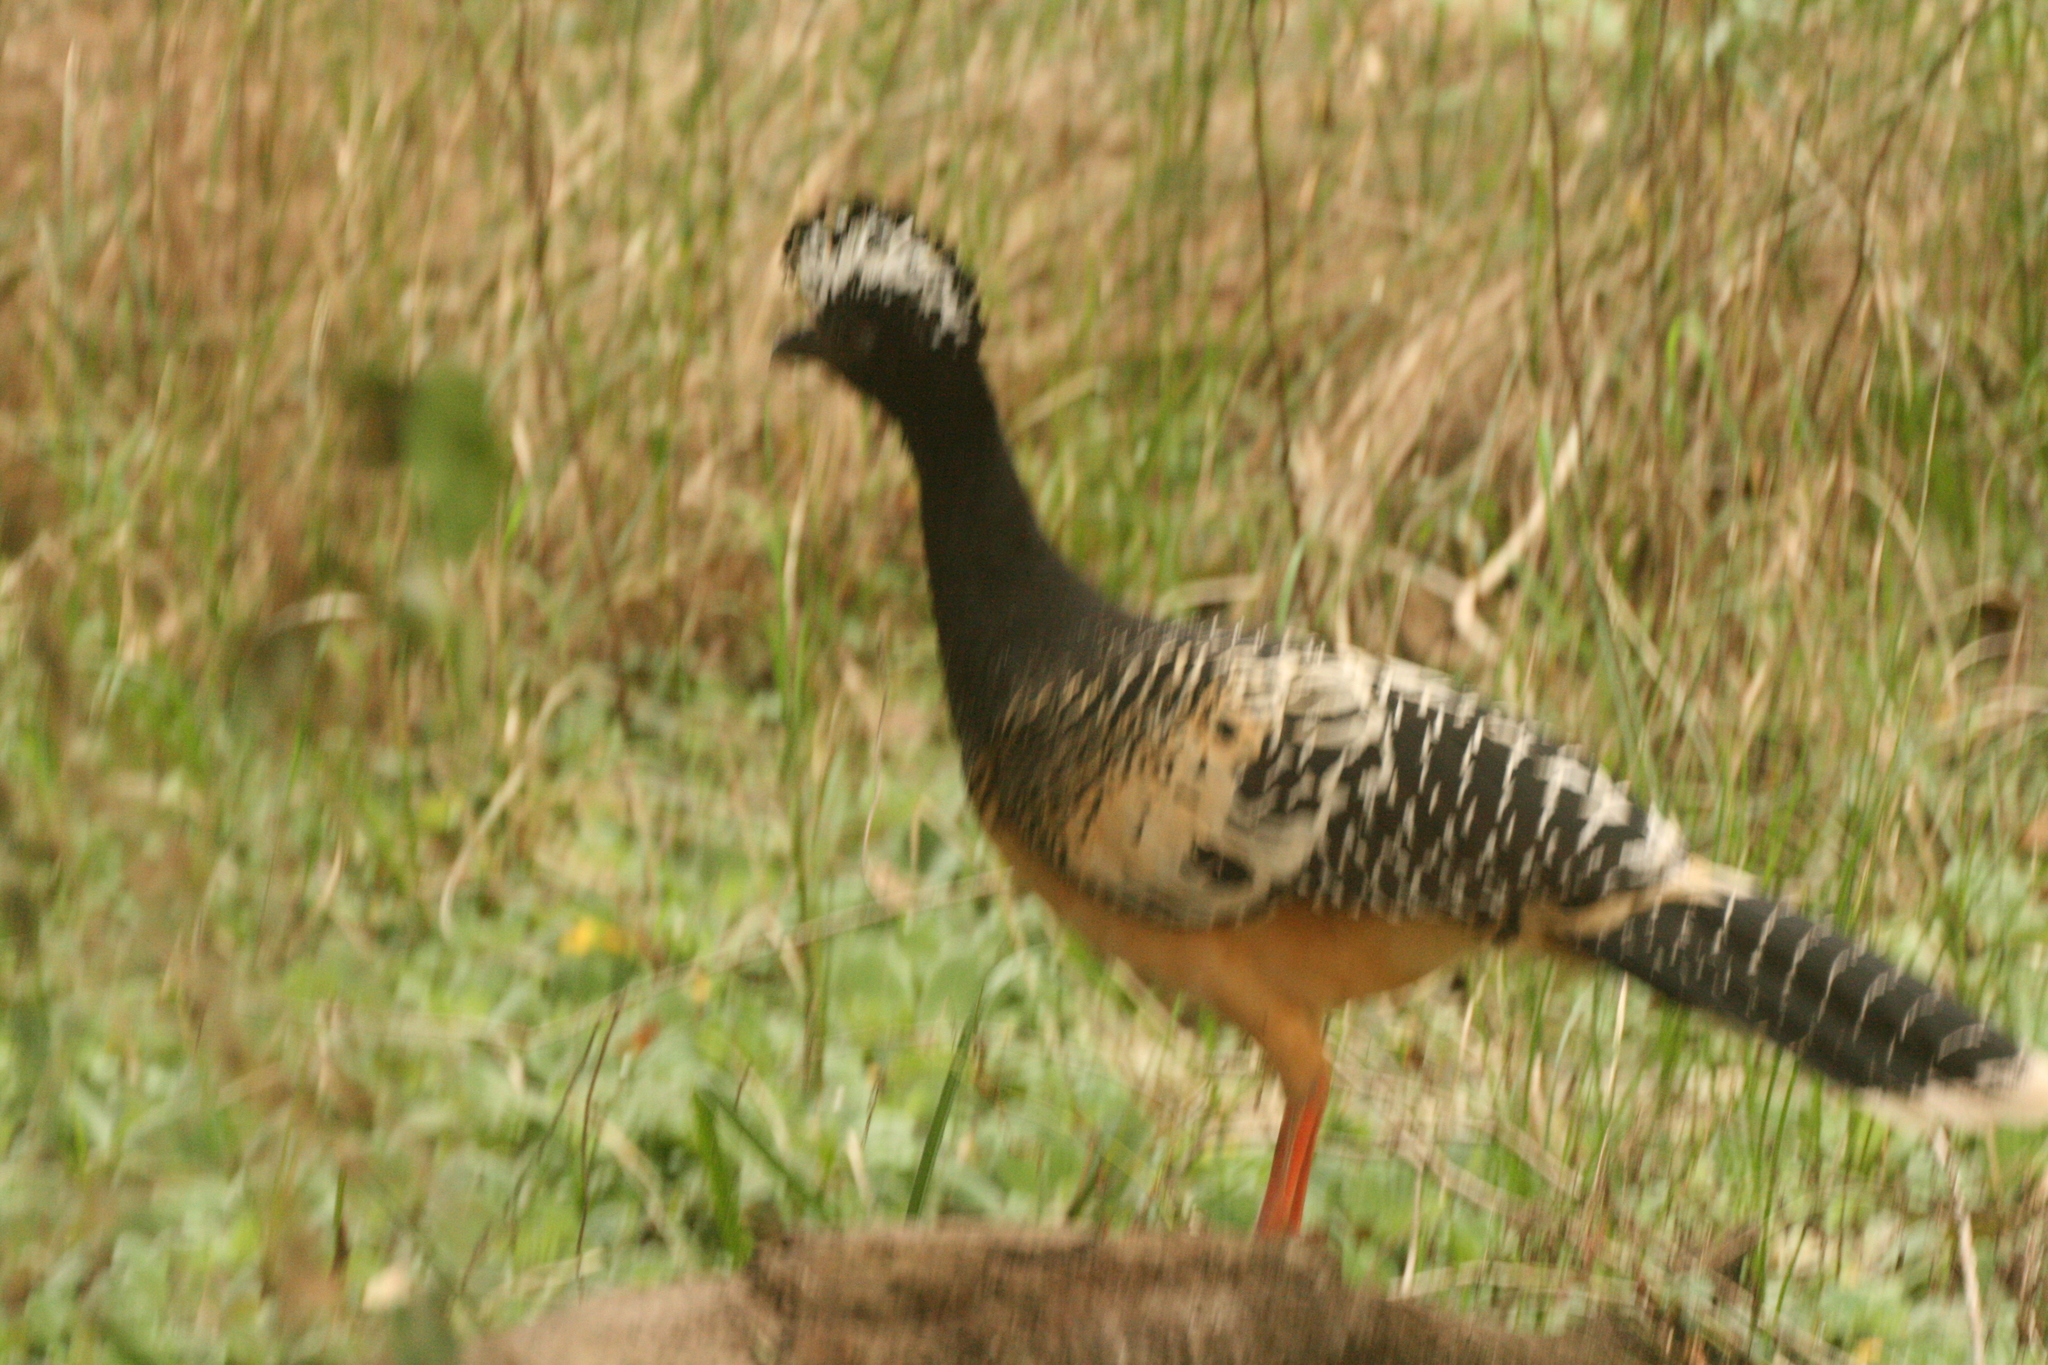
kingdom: Animalia
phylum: Chordata
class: Aves
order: Galliformes
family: Cracidae
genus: Crax
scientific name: Crax fasciolata
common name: Bare-faced curassow
